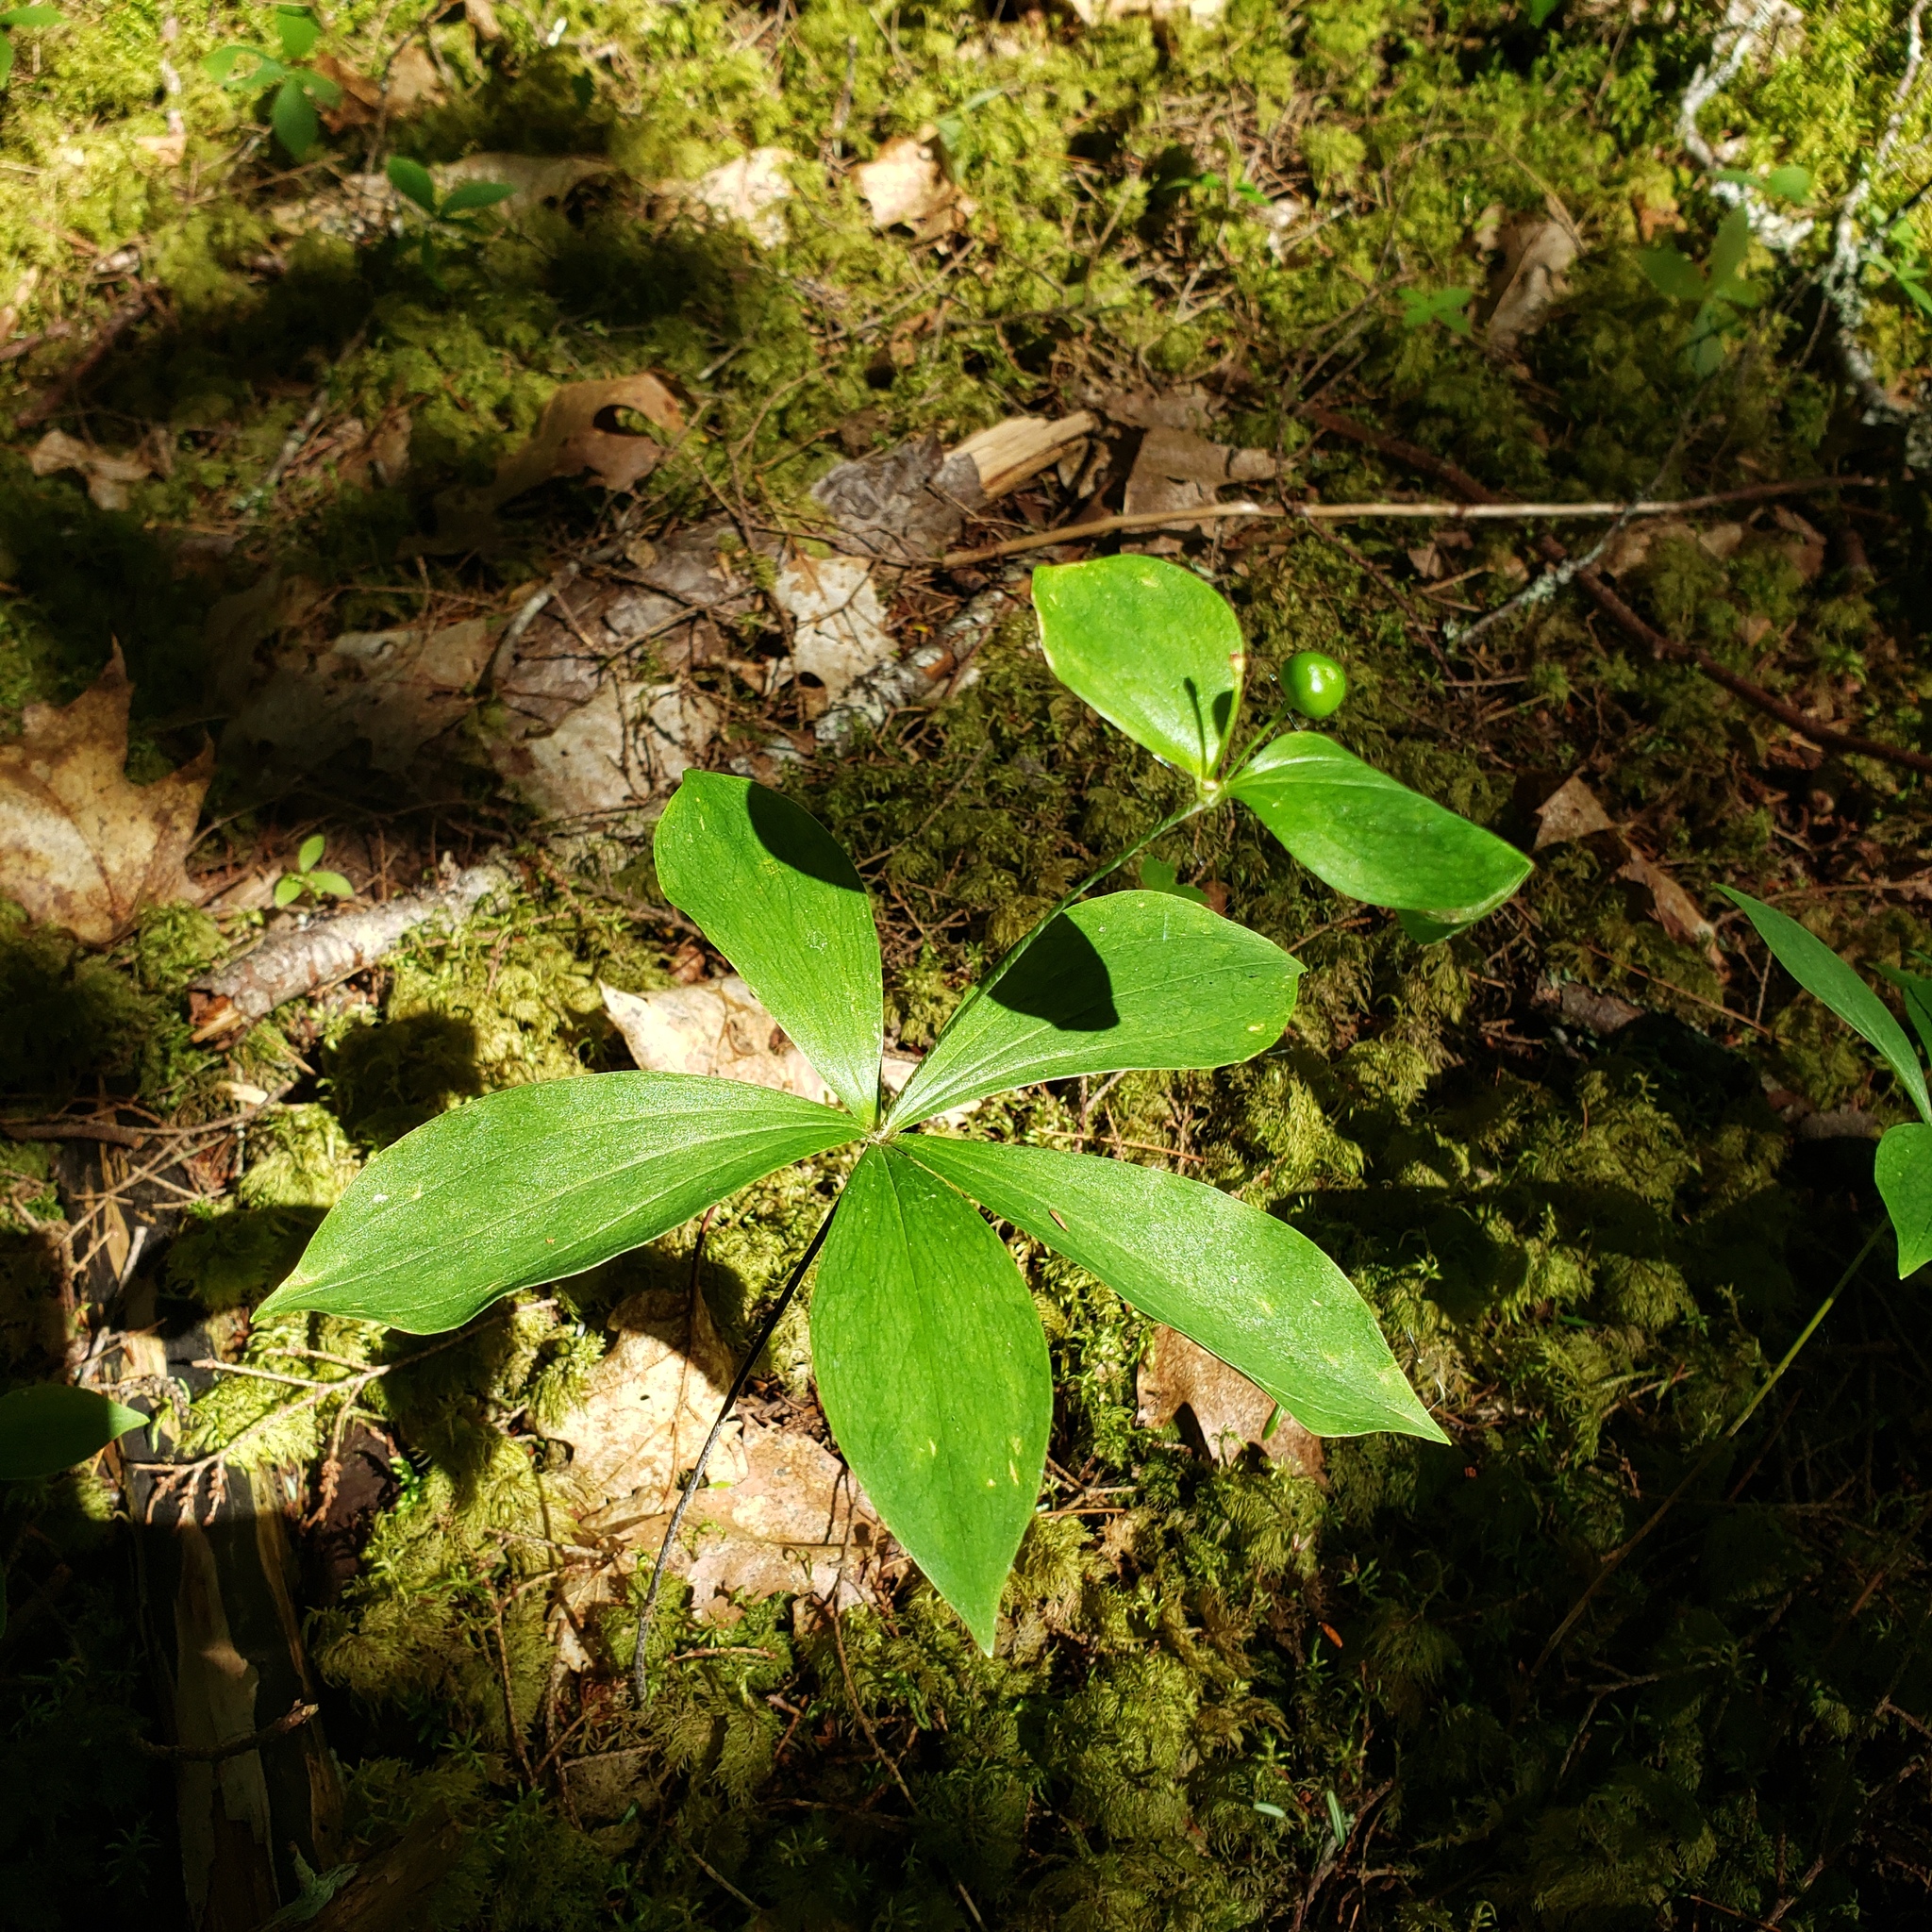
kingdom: Plantae
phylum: Tracheophyta
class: Liliopsida
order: Liliales
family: Liliaceae
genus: Medeola
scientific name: Medeola virginiana
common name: Indian cucumber-root
